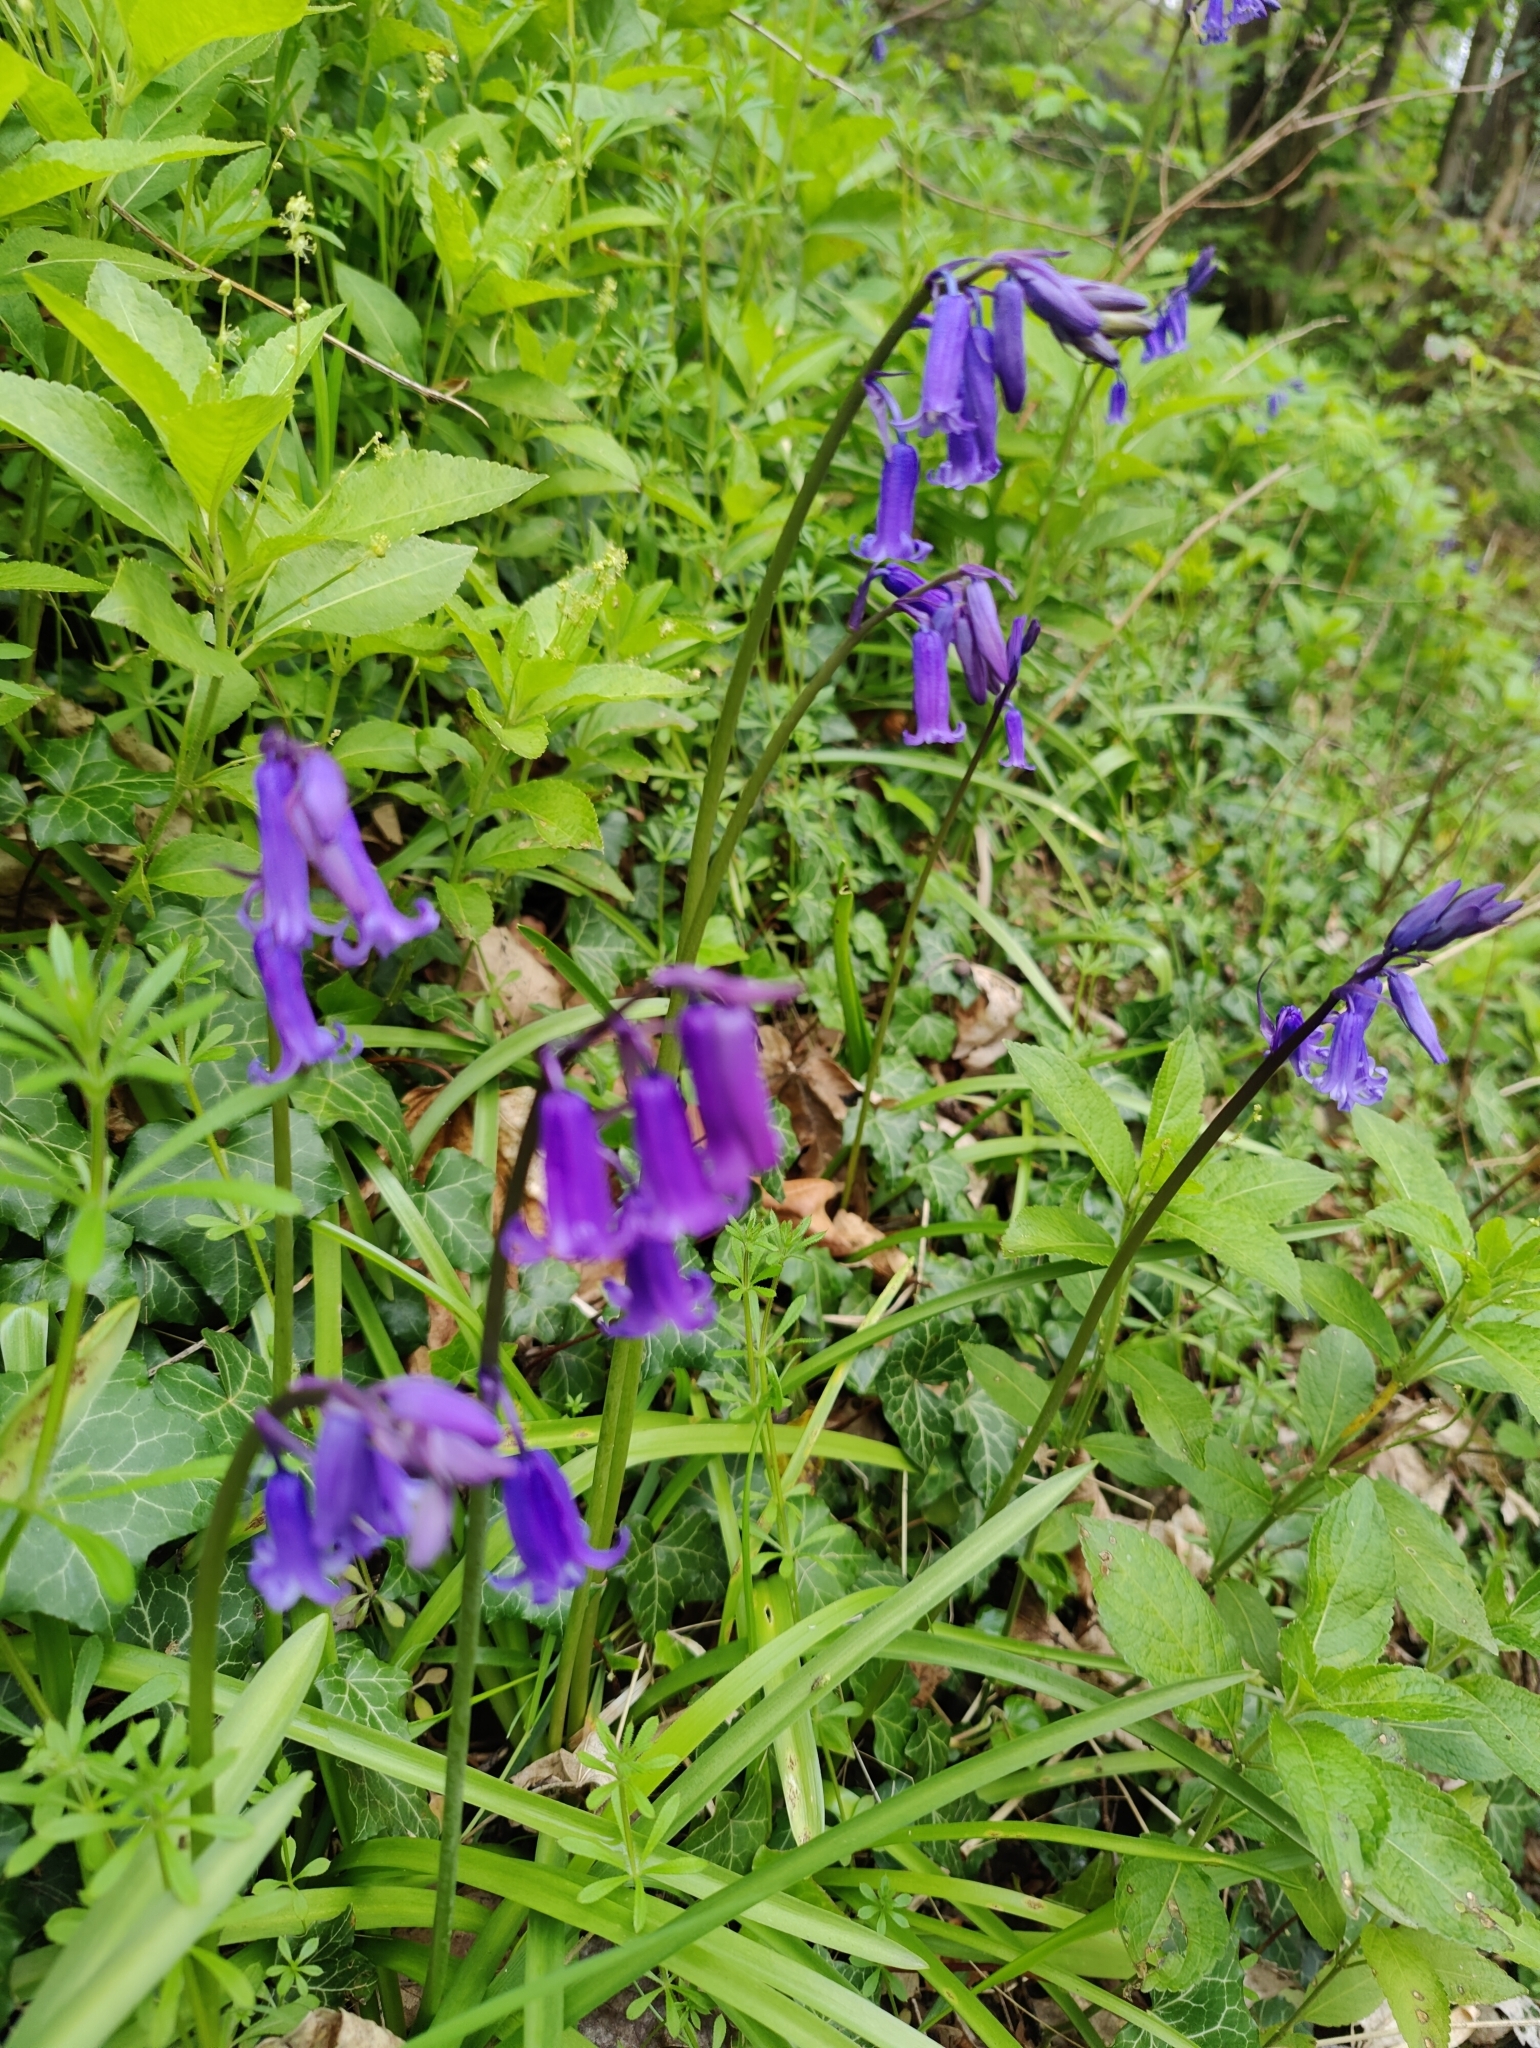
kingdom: Plantae
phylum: Tracheophyta
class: Liliopsida
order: Asparagales
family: Asparagaceae
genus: Hyacinthoides
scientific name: Hyacinthoides non-scripta
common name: Bluebell
